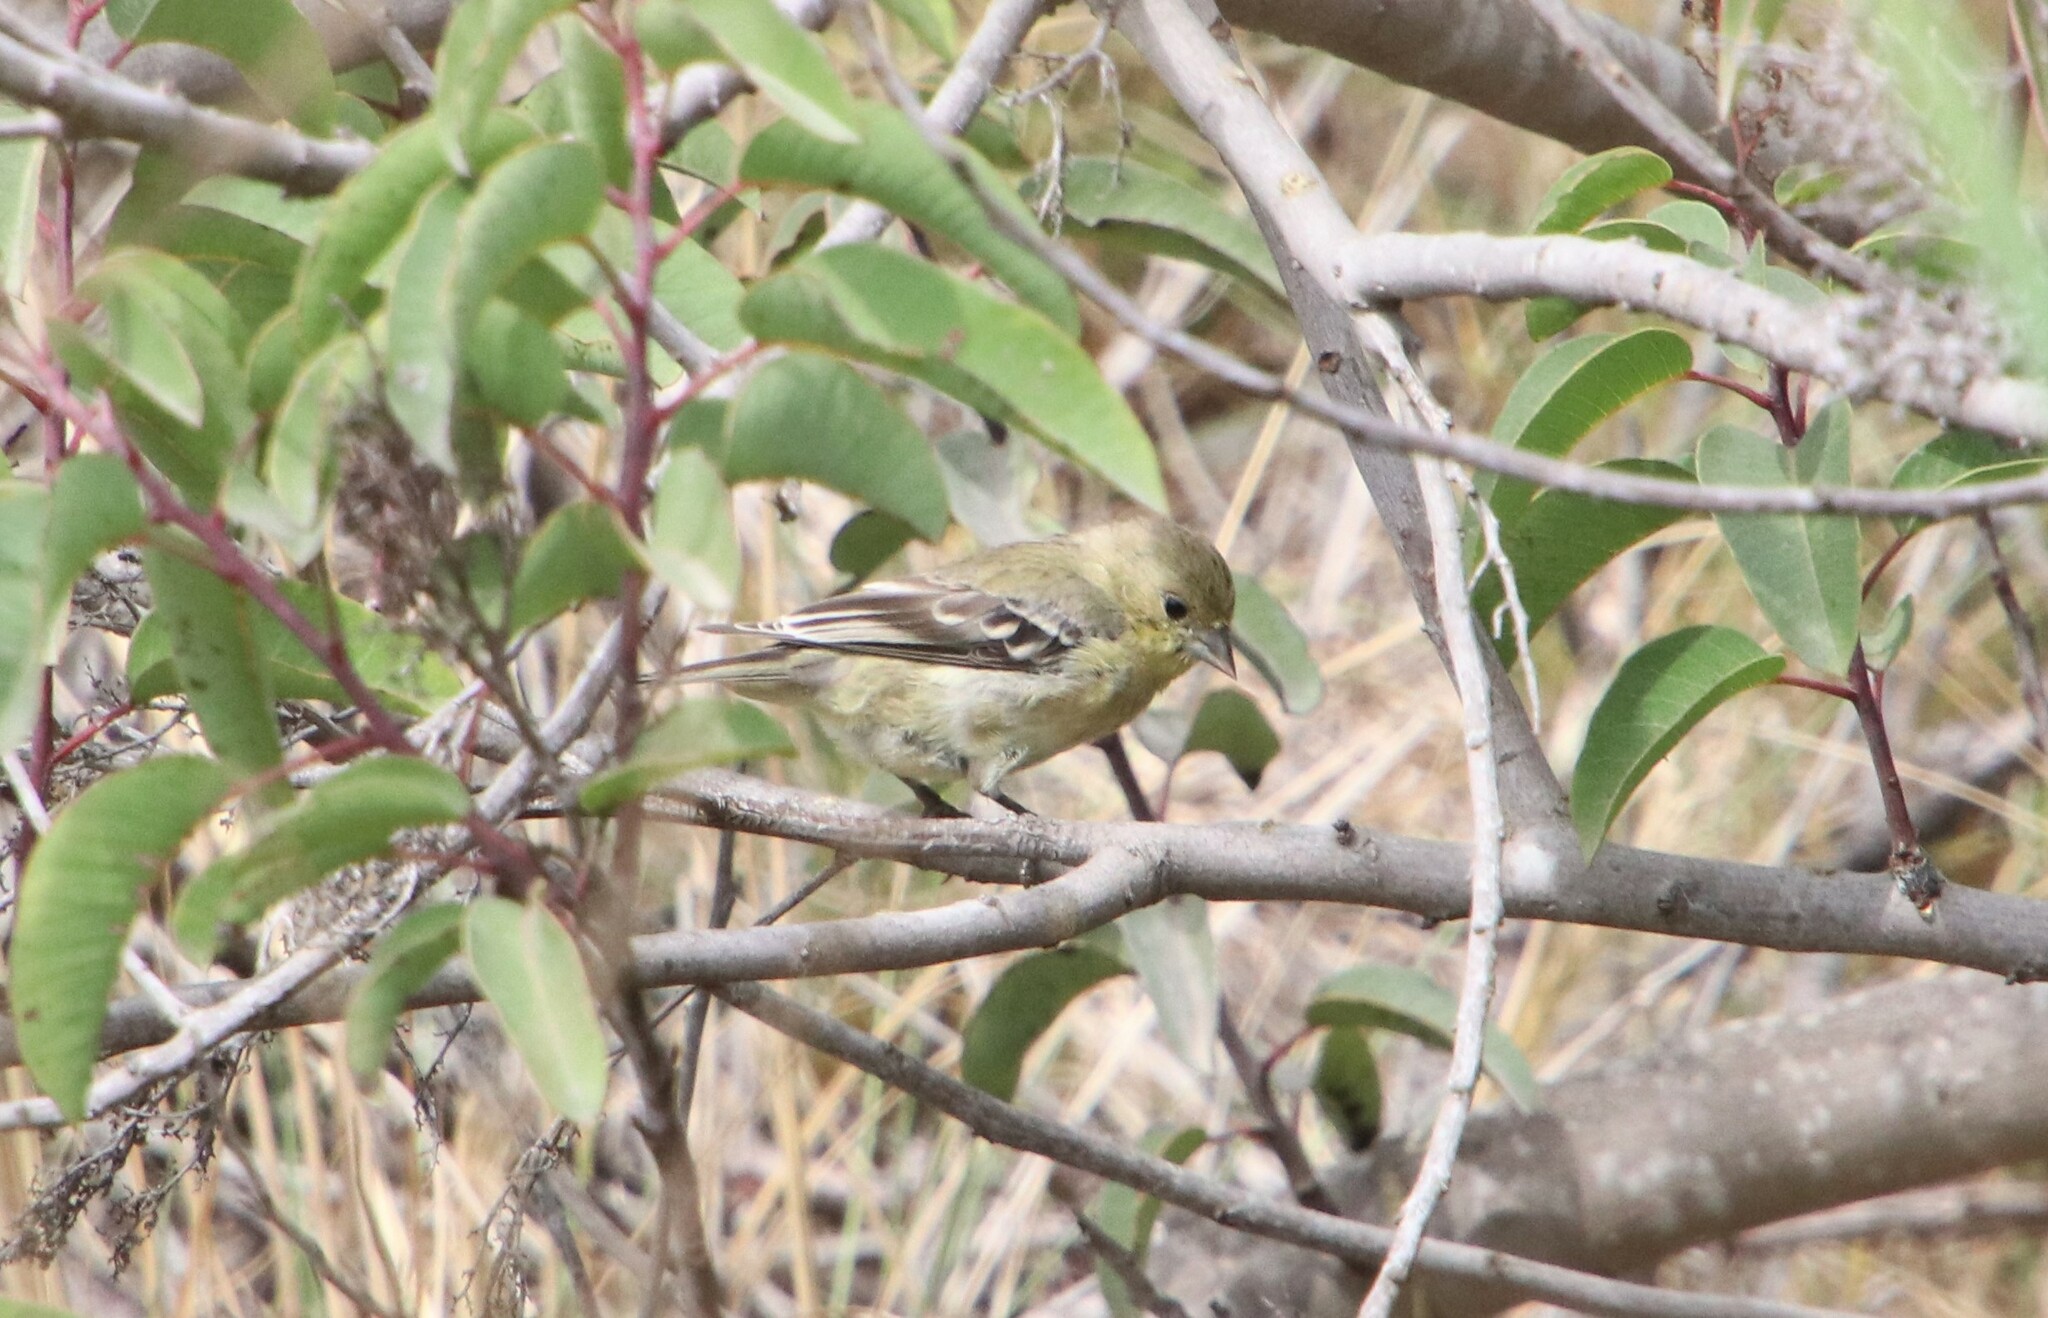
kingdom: Animalia
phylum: Chordata
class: Aves
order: Passeriformes
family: Fringillidae
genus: Spinus
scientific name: Spinus psaltria
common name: Lesser goldfinch
